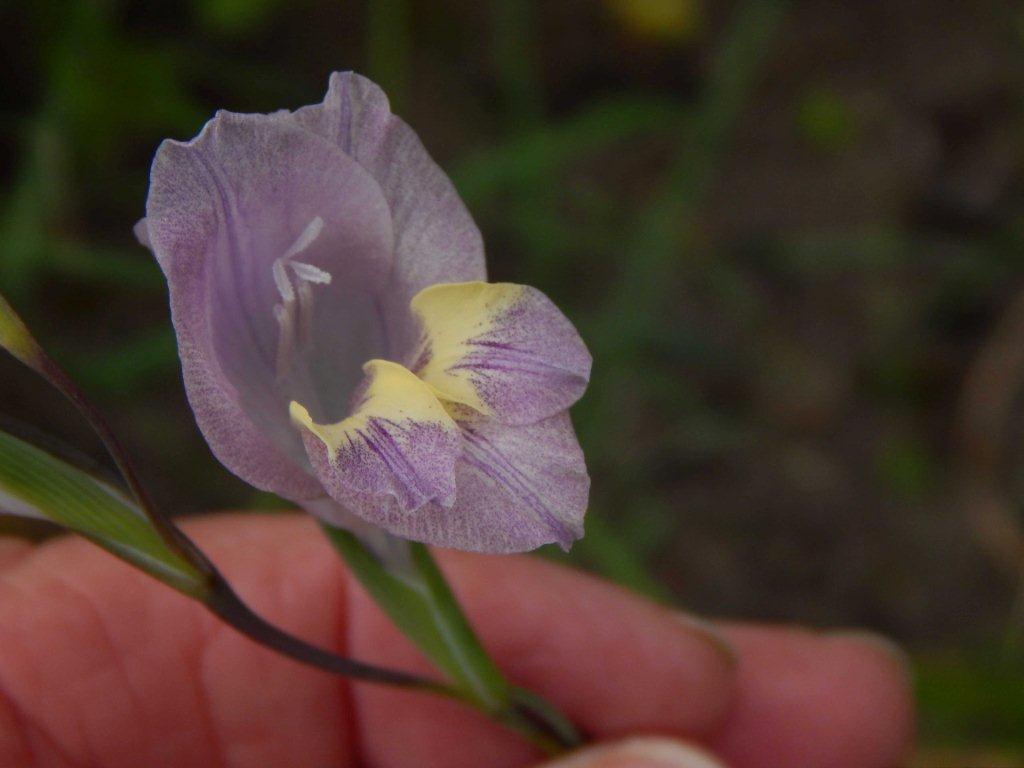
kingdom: Plantae
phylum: Tracheophyta
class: Liliopsida
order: Asparagales
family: Iridaceae
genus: Gladiolus
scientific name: Gladiolus carinatus
